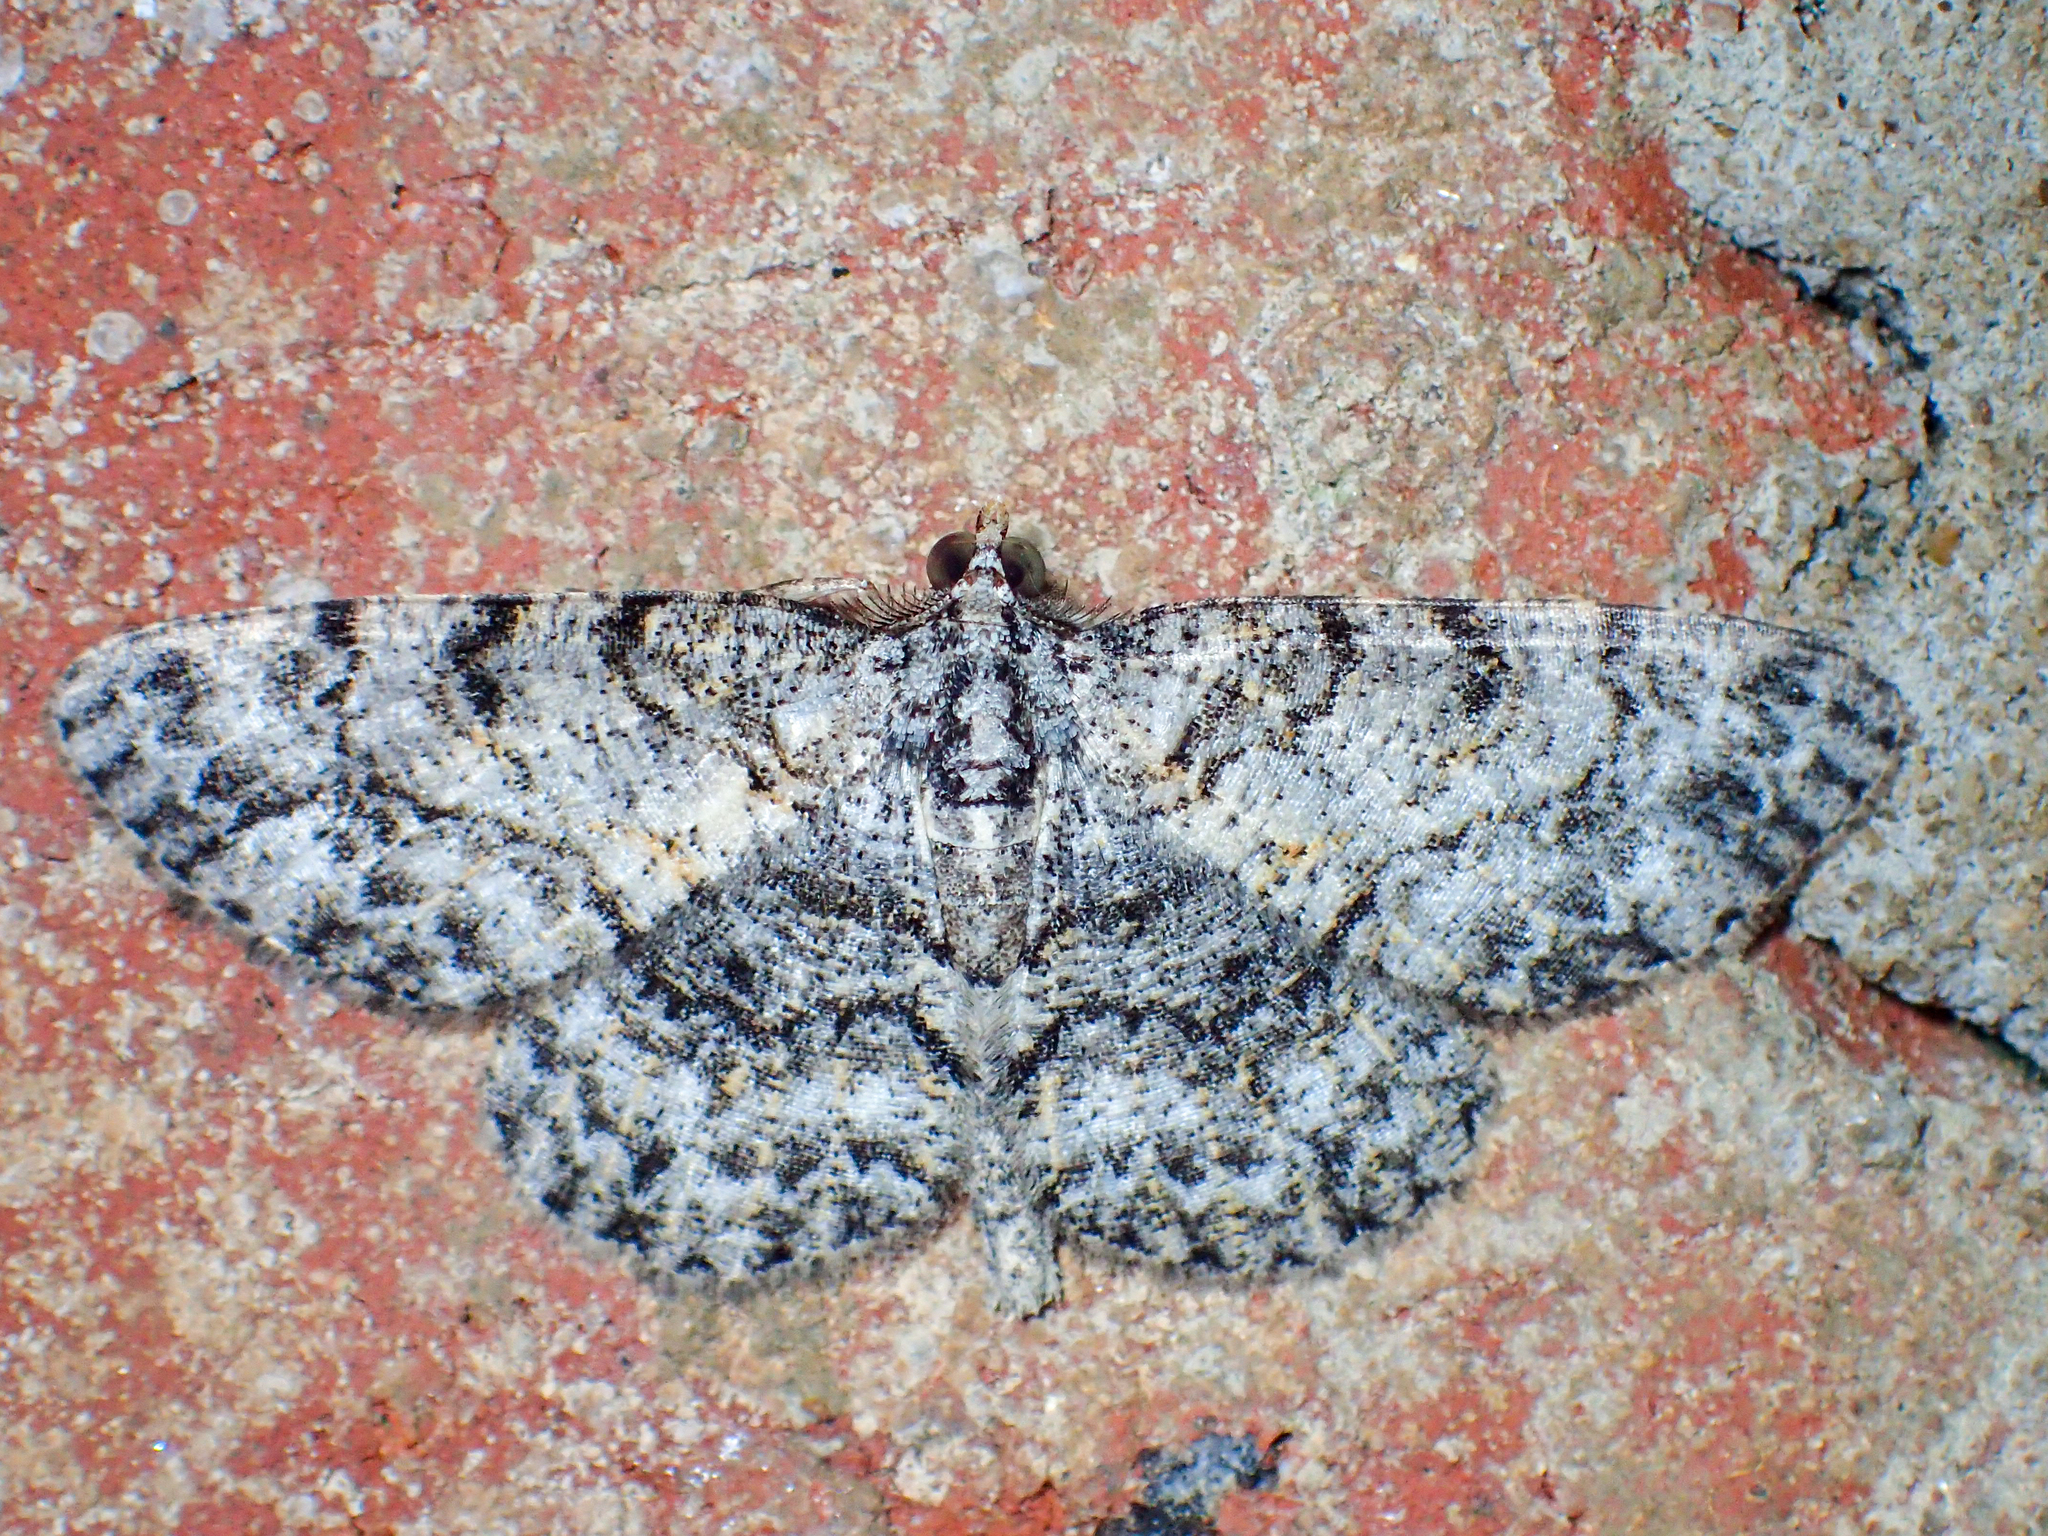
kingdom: Animalia
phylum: Arthropoda
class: Insecta
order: Lepidoptera
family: Geometridae
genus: Protoboarmia
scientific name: Protoboarmia porcelaria
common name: Porcelain gray
